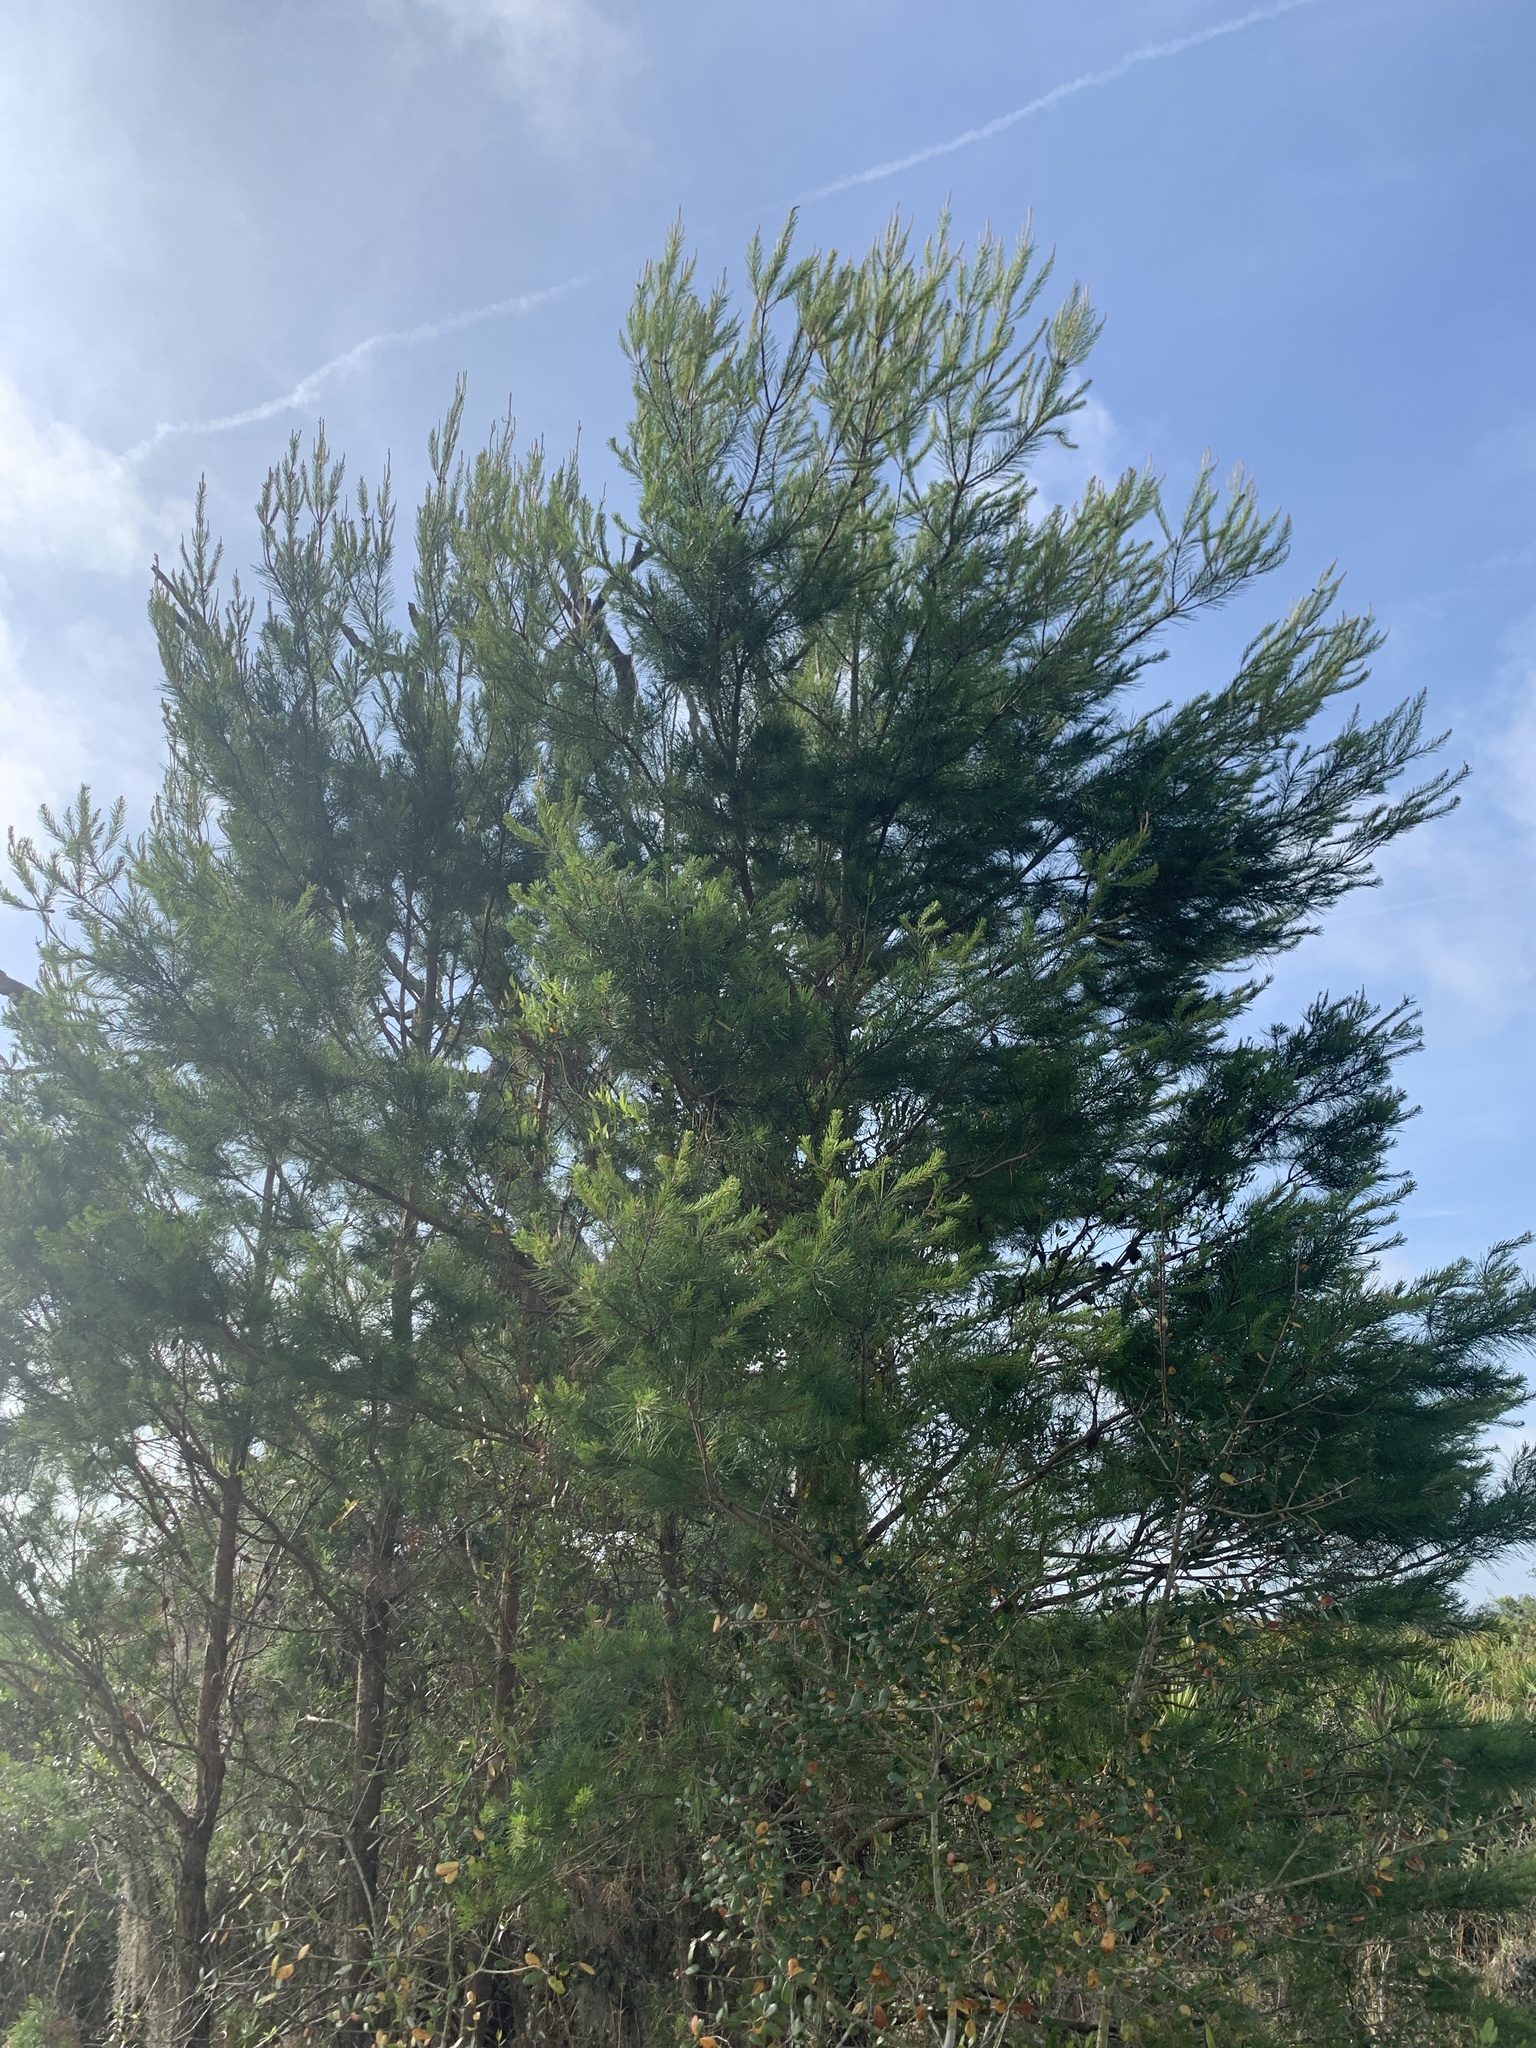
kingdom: Plantae
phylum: Tracheophyta
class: Pinopsida
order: Pinales
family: Pinaceae
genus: Pinus
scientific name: Pinus clausa
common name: Sand pine
